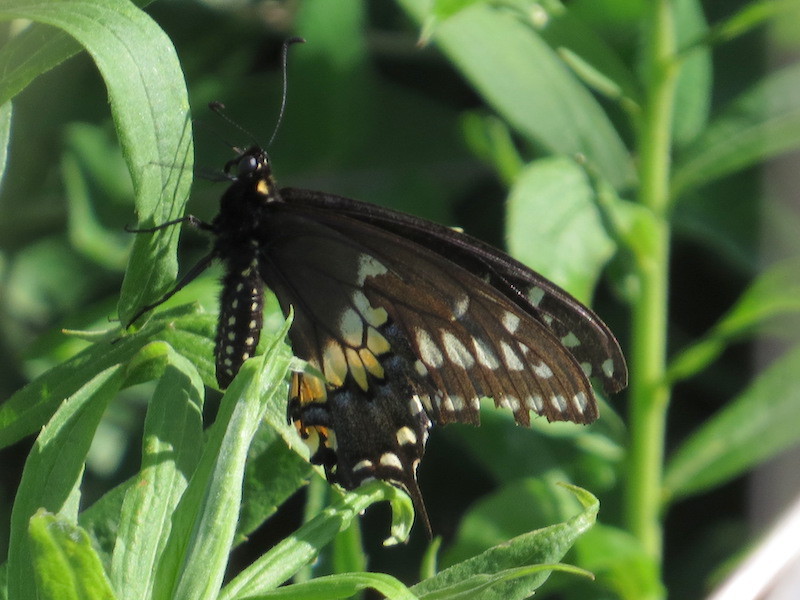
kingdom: Animalia
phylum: Arthropoda
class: Insecta
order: Lepidoptera
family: Papilionidae
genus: Papilio
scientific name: Papilio polyxenes
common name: Black swallowtail
